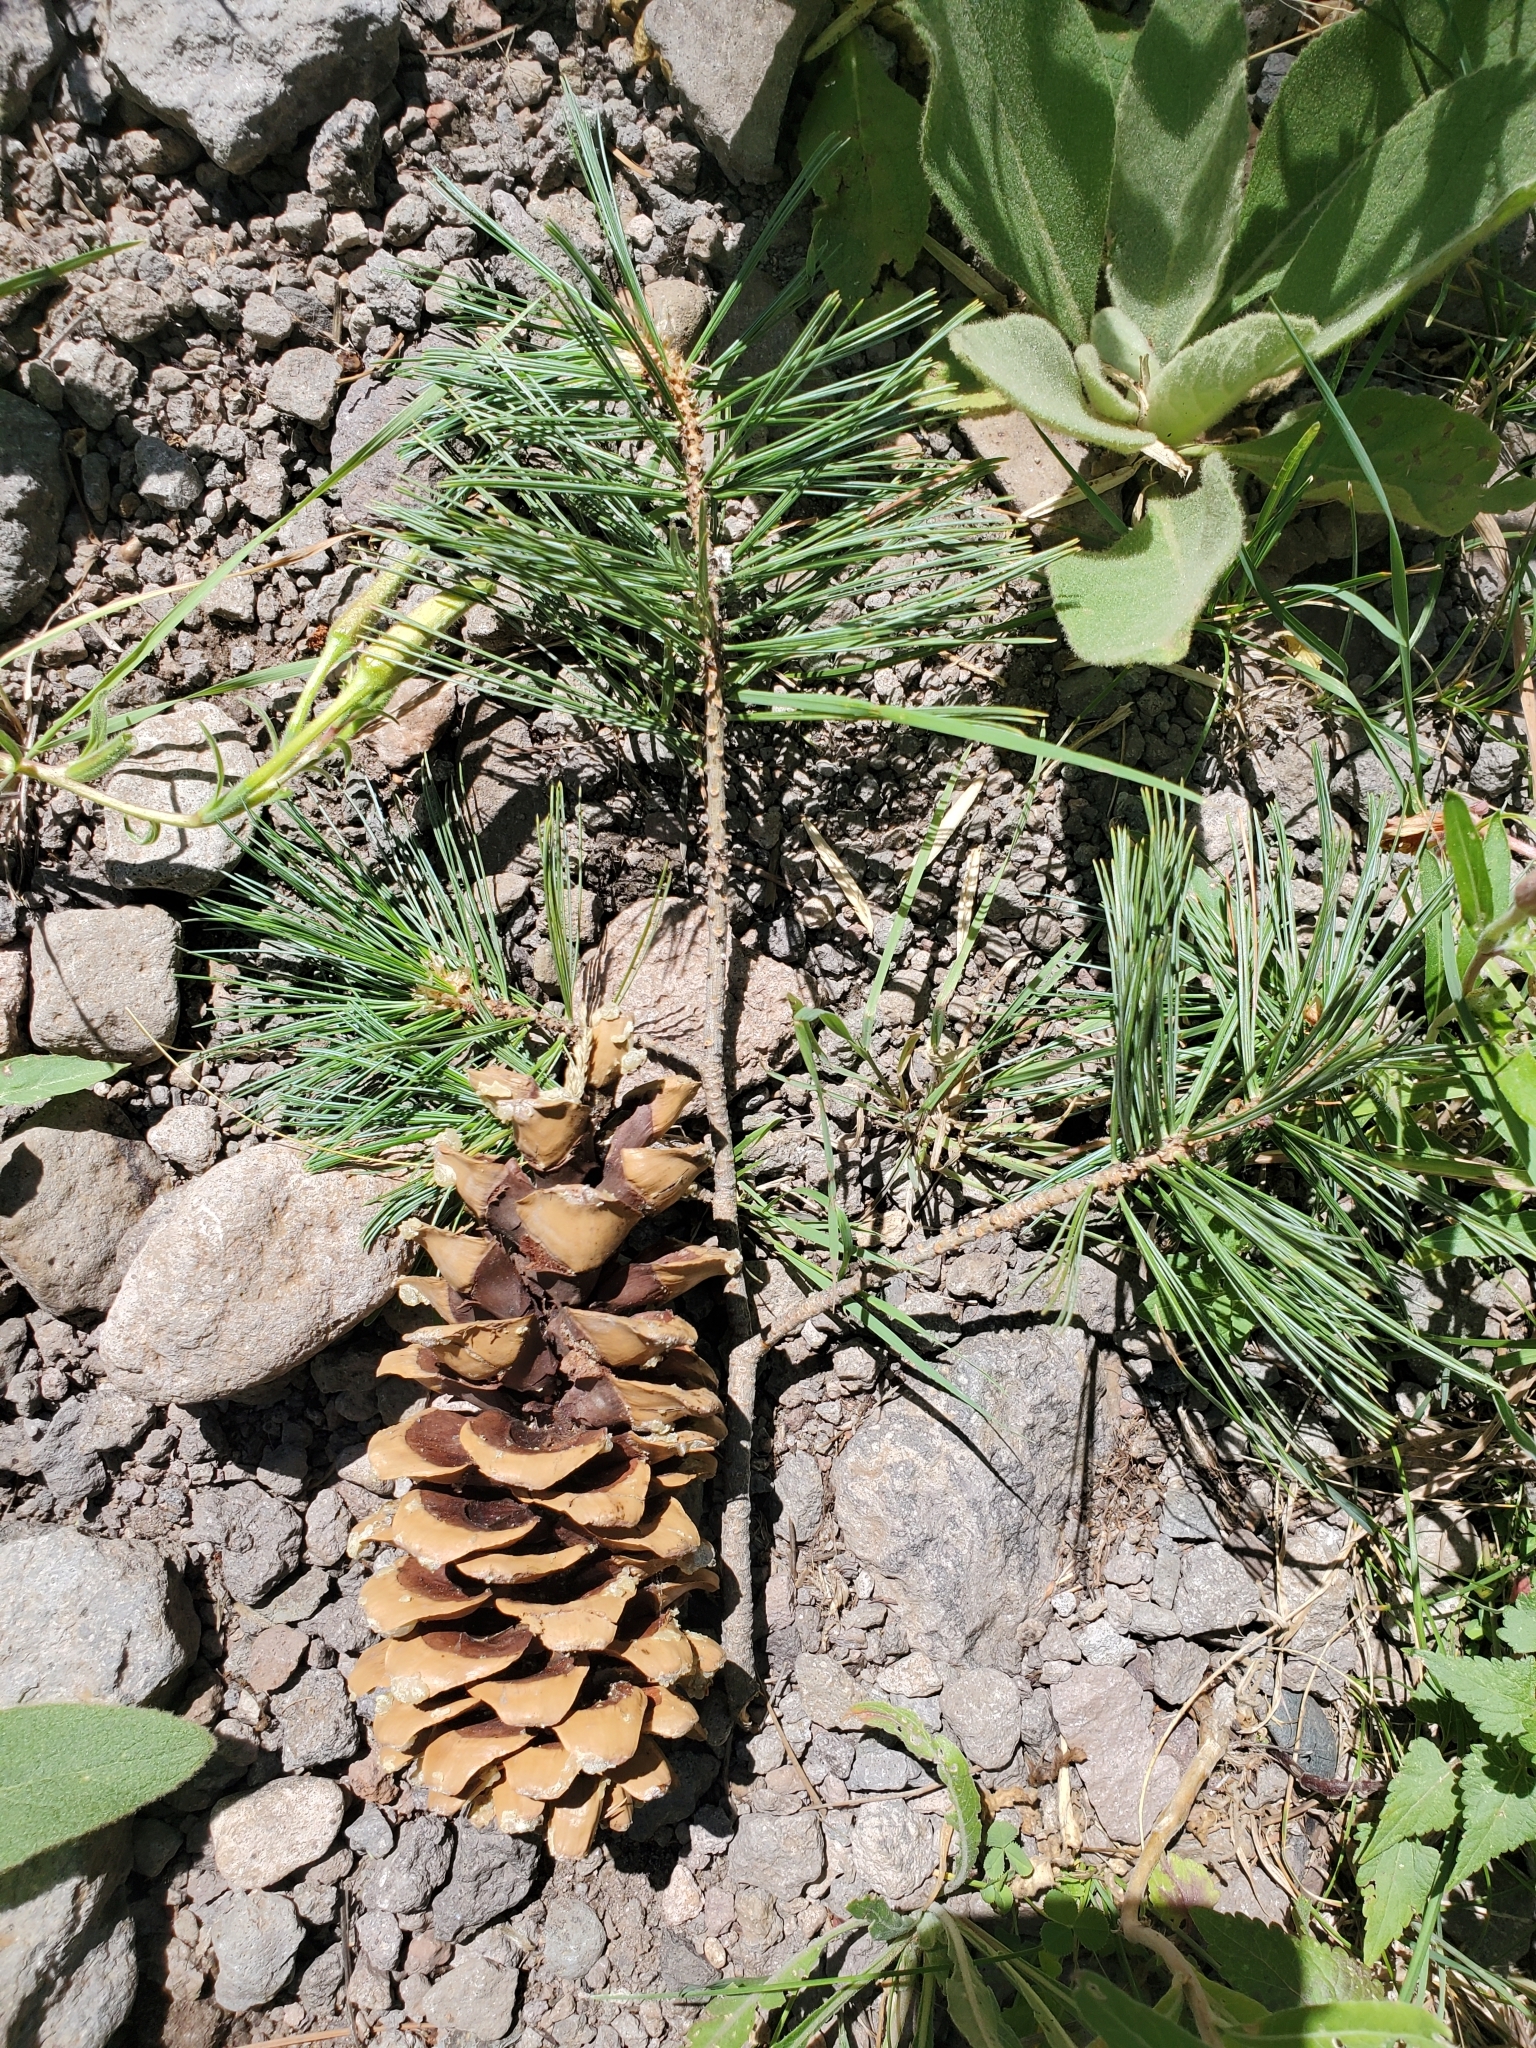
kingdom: Plantae
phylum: Tracheophyta
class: Pinopsida
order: Pinales
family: Pinaceae
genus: Pinus
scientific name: Pinus flexilis
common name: Limber pine
